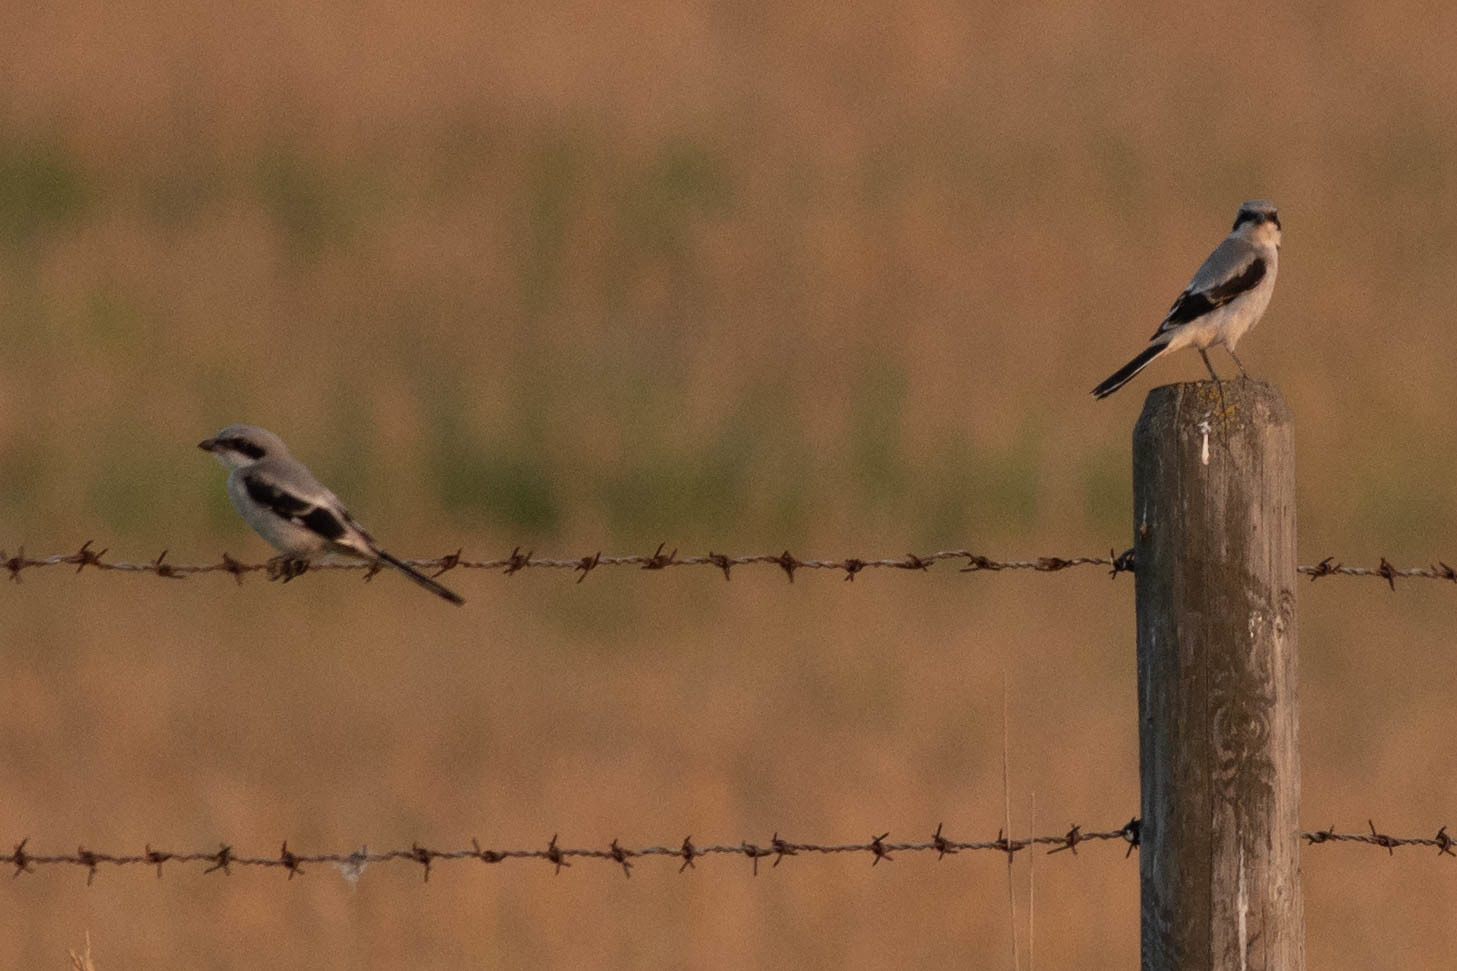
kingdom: Animalia
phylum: Chordata
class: Aves
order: Passeriformes
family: Laniidae
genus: Lanius
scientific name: Lanius ludovicianus
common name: Loggerhead shrike
